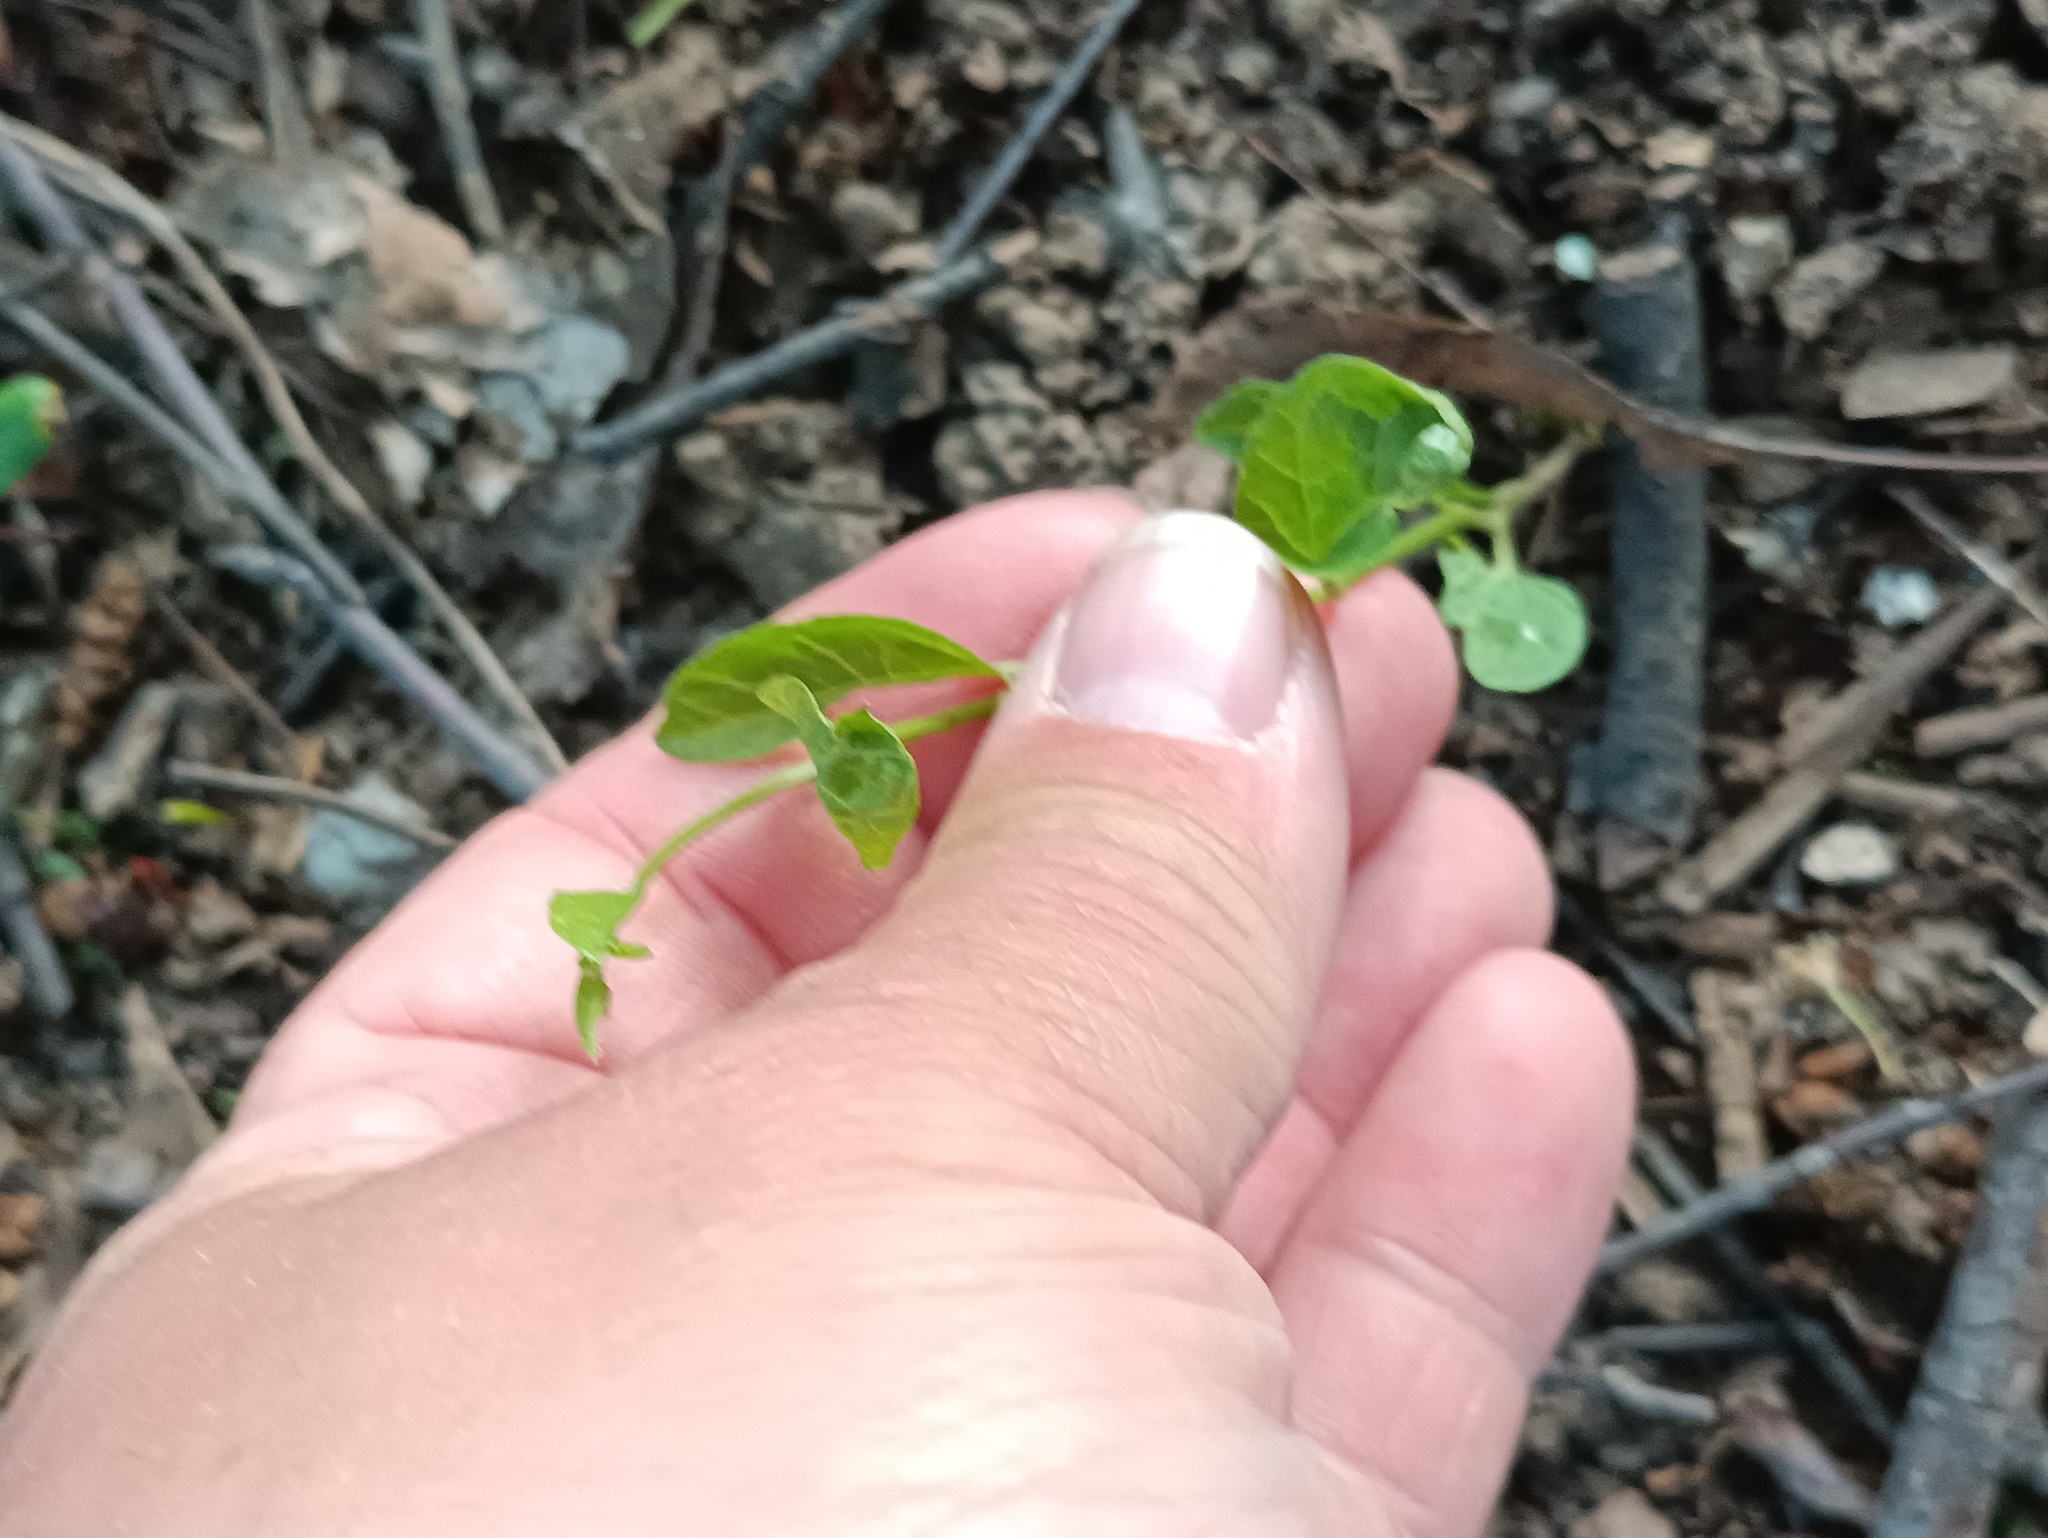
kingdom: Plantae
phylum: Tracheophyta
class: Magnoliopsida
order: Solanales
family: Convolvulaceae
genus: Convolvulus
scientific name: Convolvulus arvensis
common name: Field bindweed
